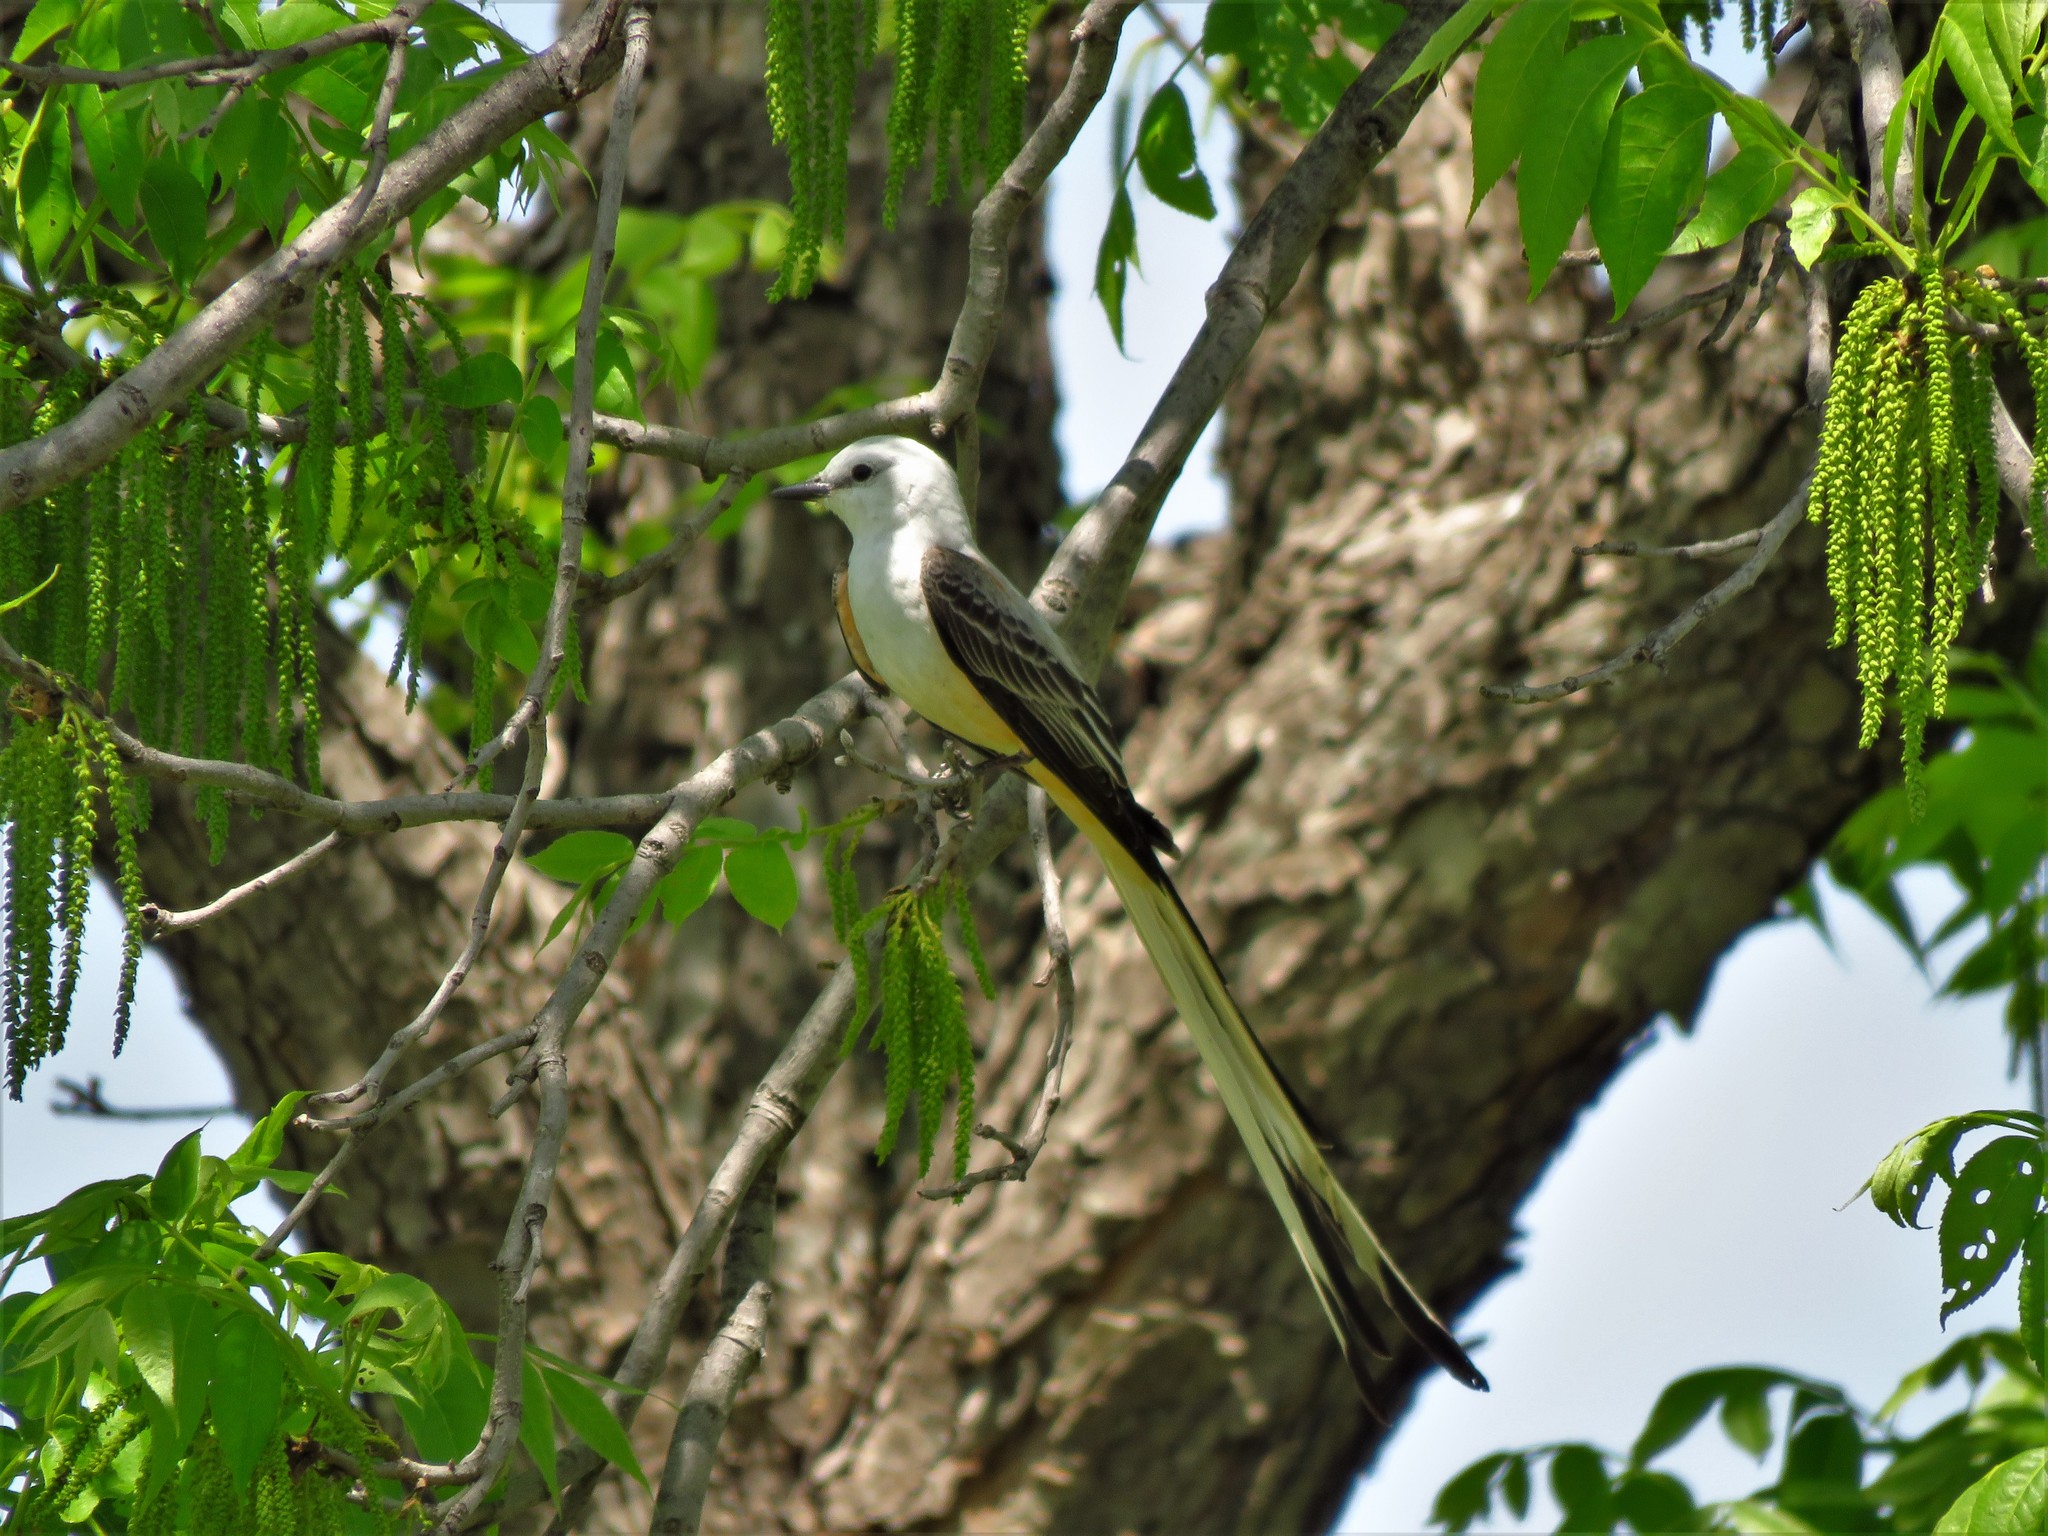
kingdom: Animalia
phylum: Chordata
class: Aves
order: Passeriformes
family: Tyrannidae
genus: Tyrannus
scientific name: Tyrannus forficatus
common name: Scissor-tailed flycatcher
